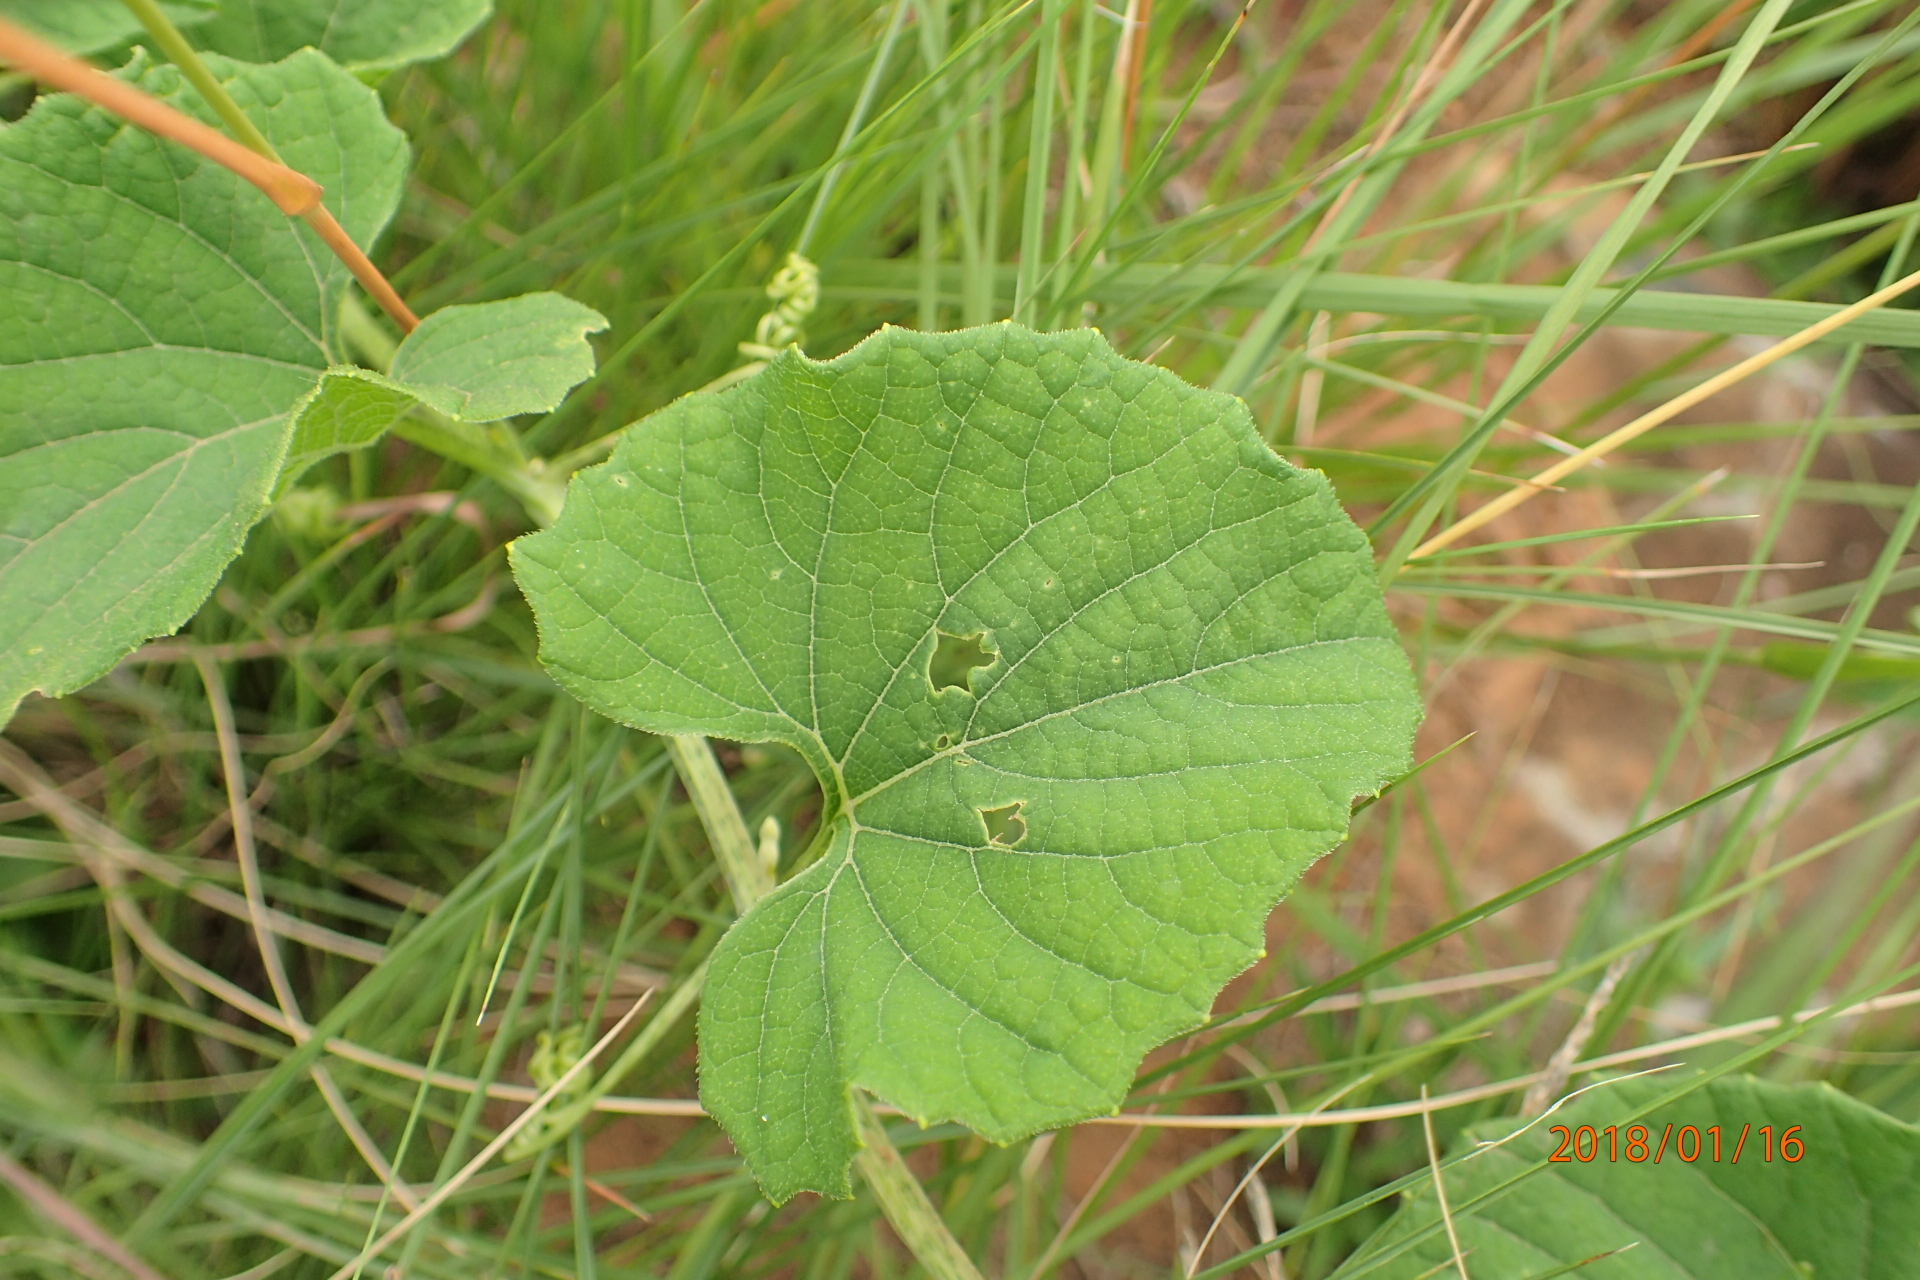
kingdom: Plantae
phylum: Tracheophyta
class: Magnoliopsida
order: Cucurbitales
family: Cucurbitaceae
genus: Momordica
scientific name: Momordica foetida
